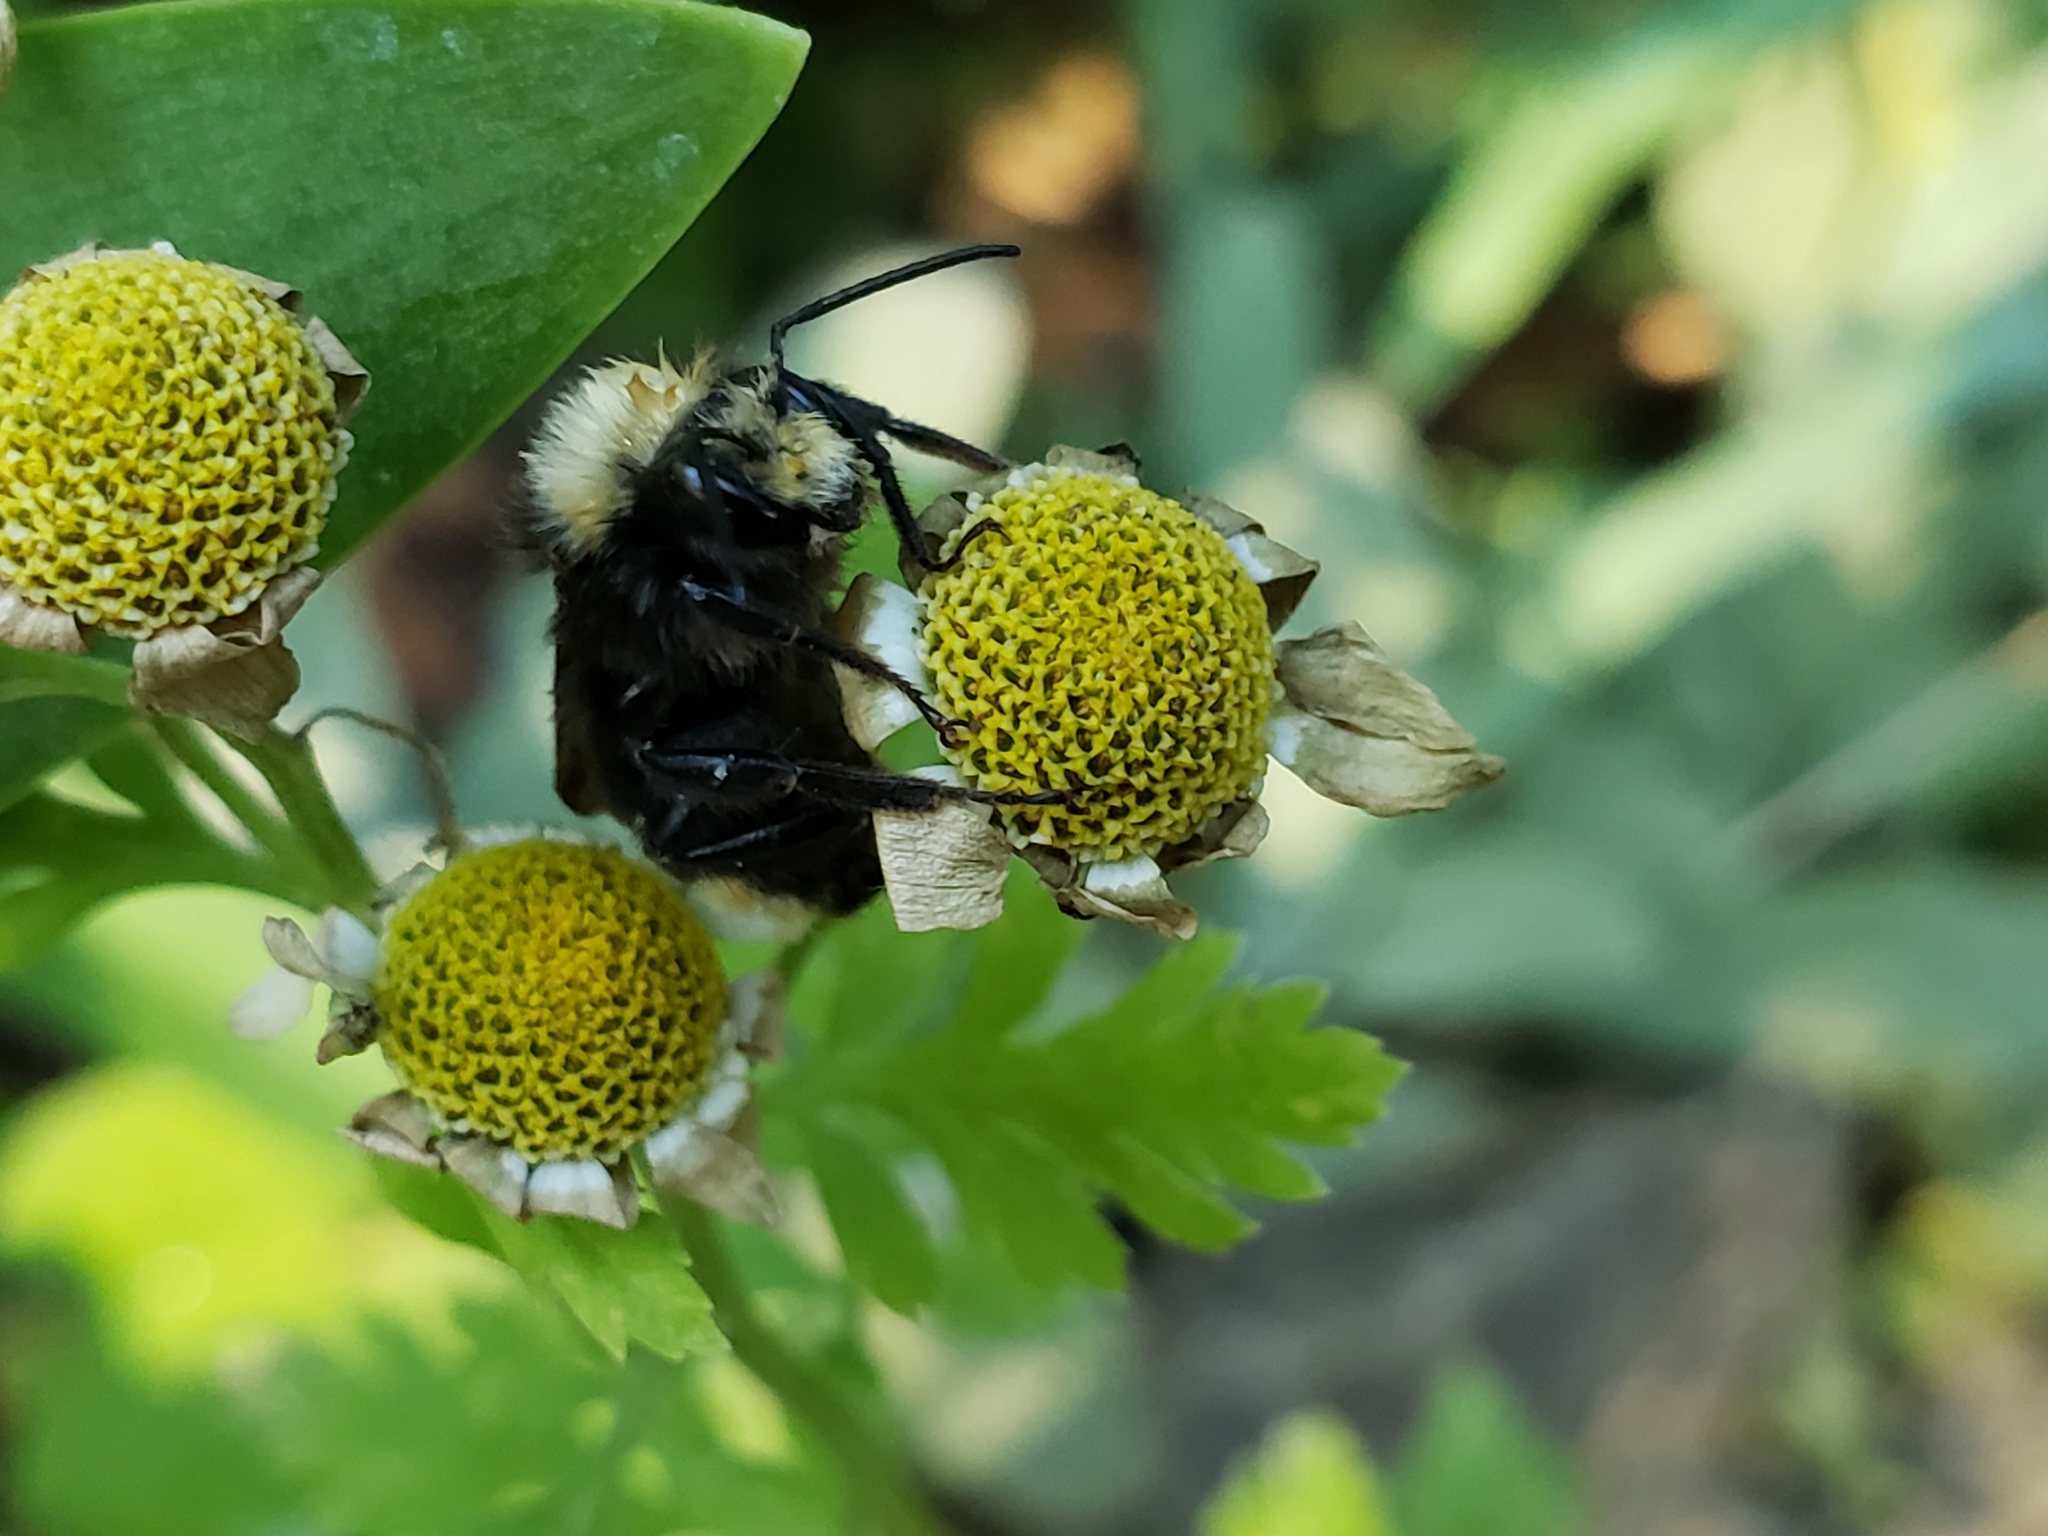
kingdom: Animalia
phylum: Arthropoda
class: Insecta
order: Hymenoptera
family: Apidae
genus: Bombus
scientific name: Bombus vosnesenskii
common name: Vosnesensky bumble bee
